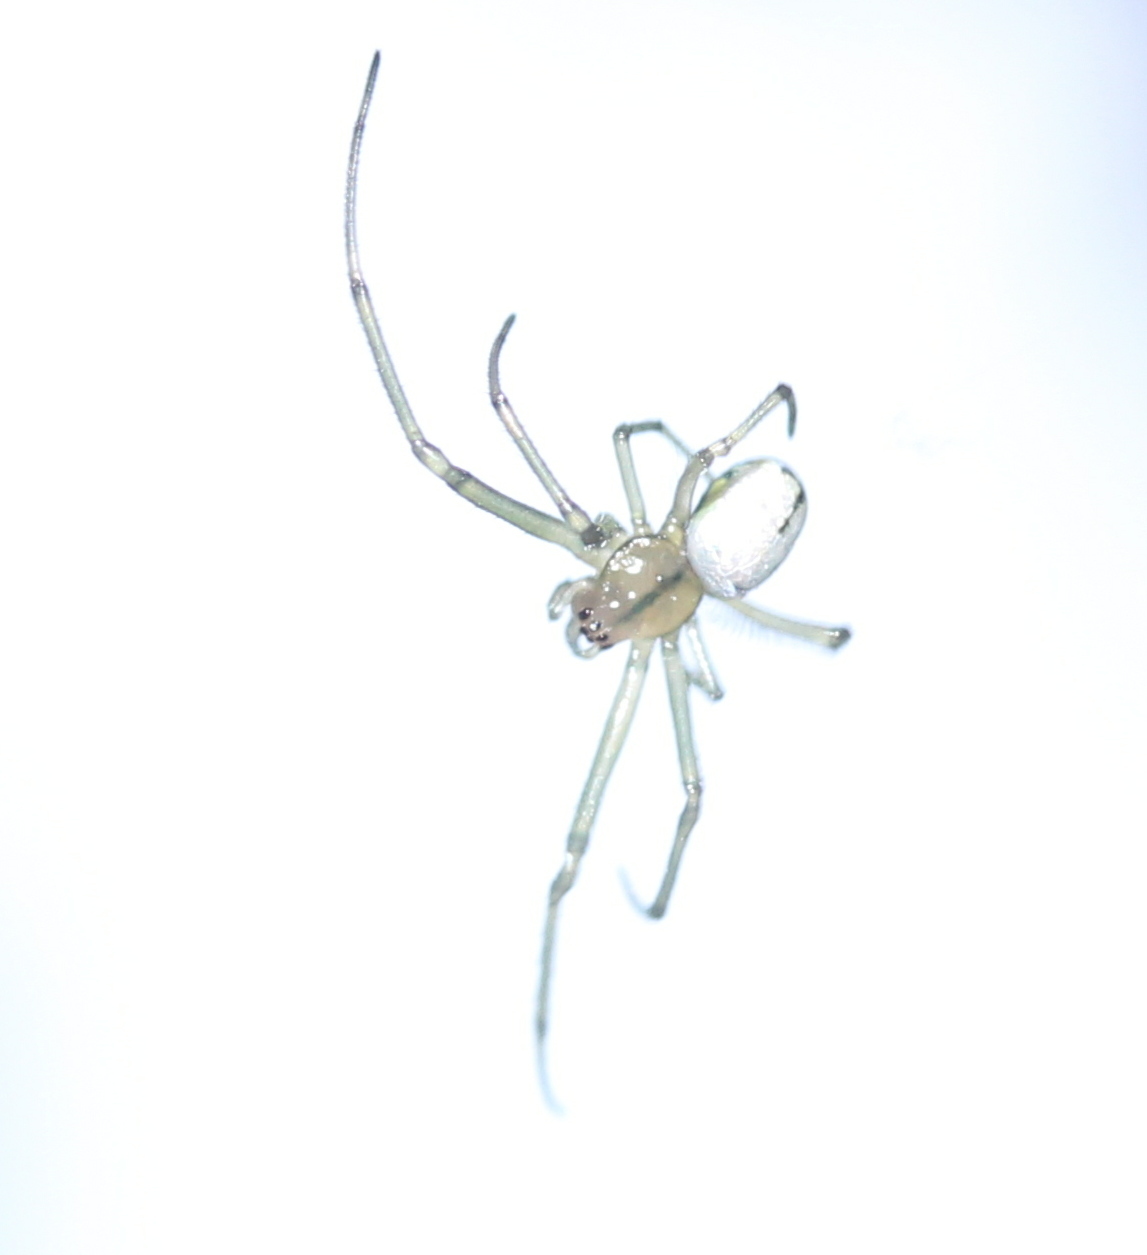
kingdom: Animalia
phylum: Arthropoda
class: Arachnida
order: Araneae
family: Tetragnathidae
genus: Leucauge
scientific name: Leucauge venusta
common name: Longjawed orb weavers
